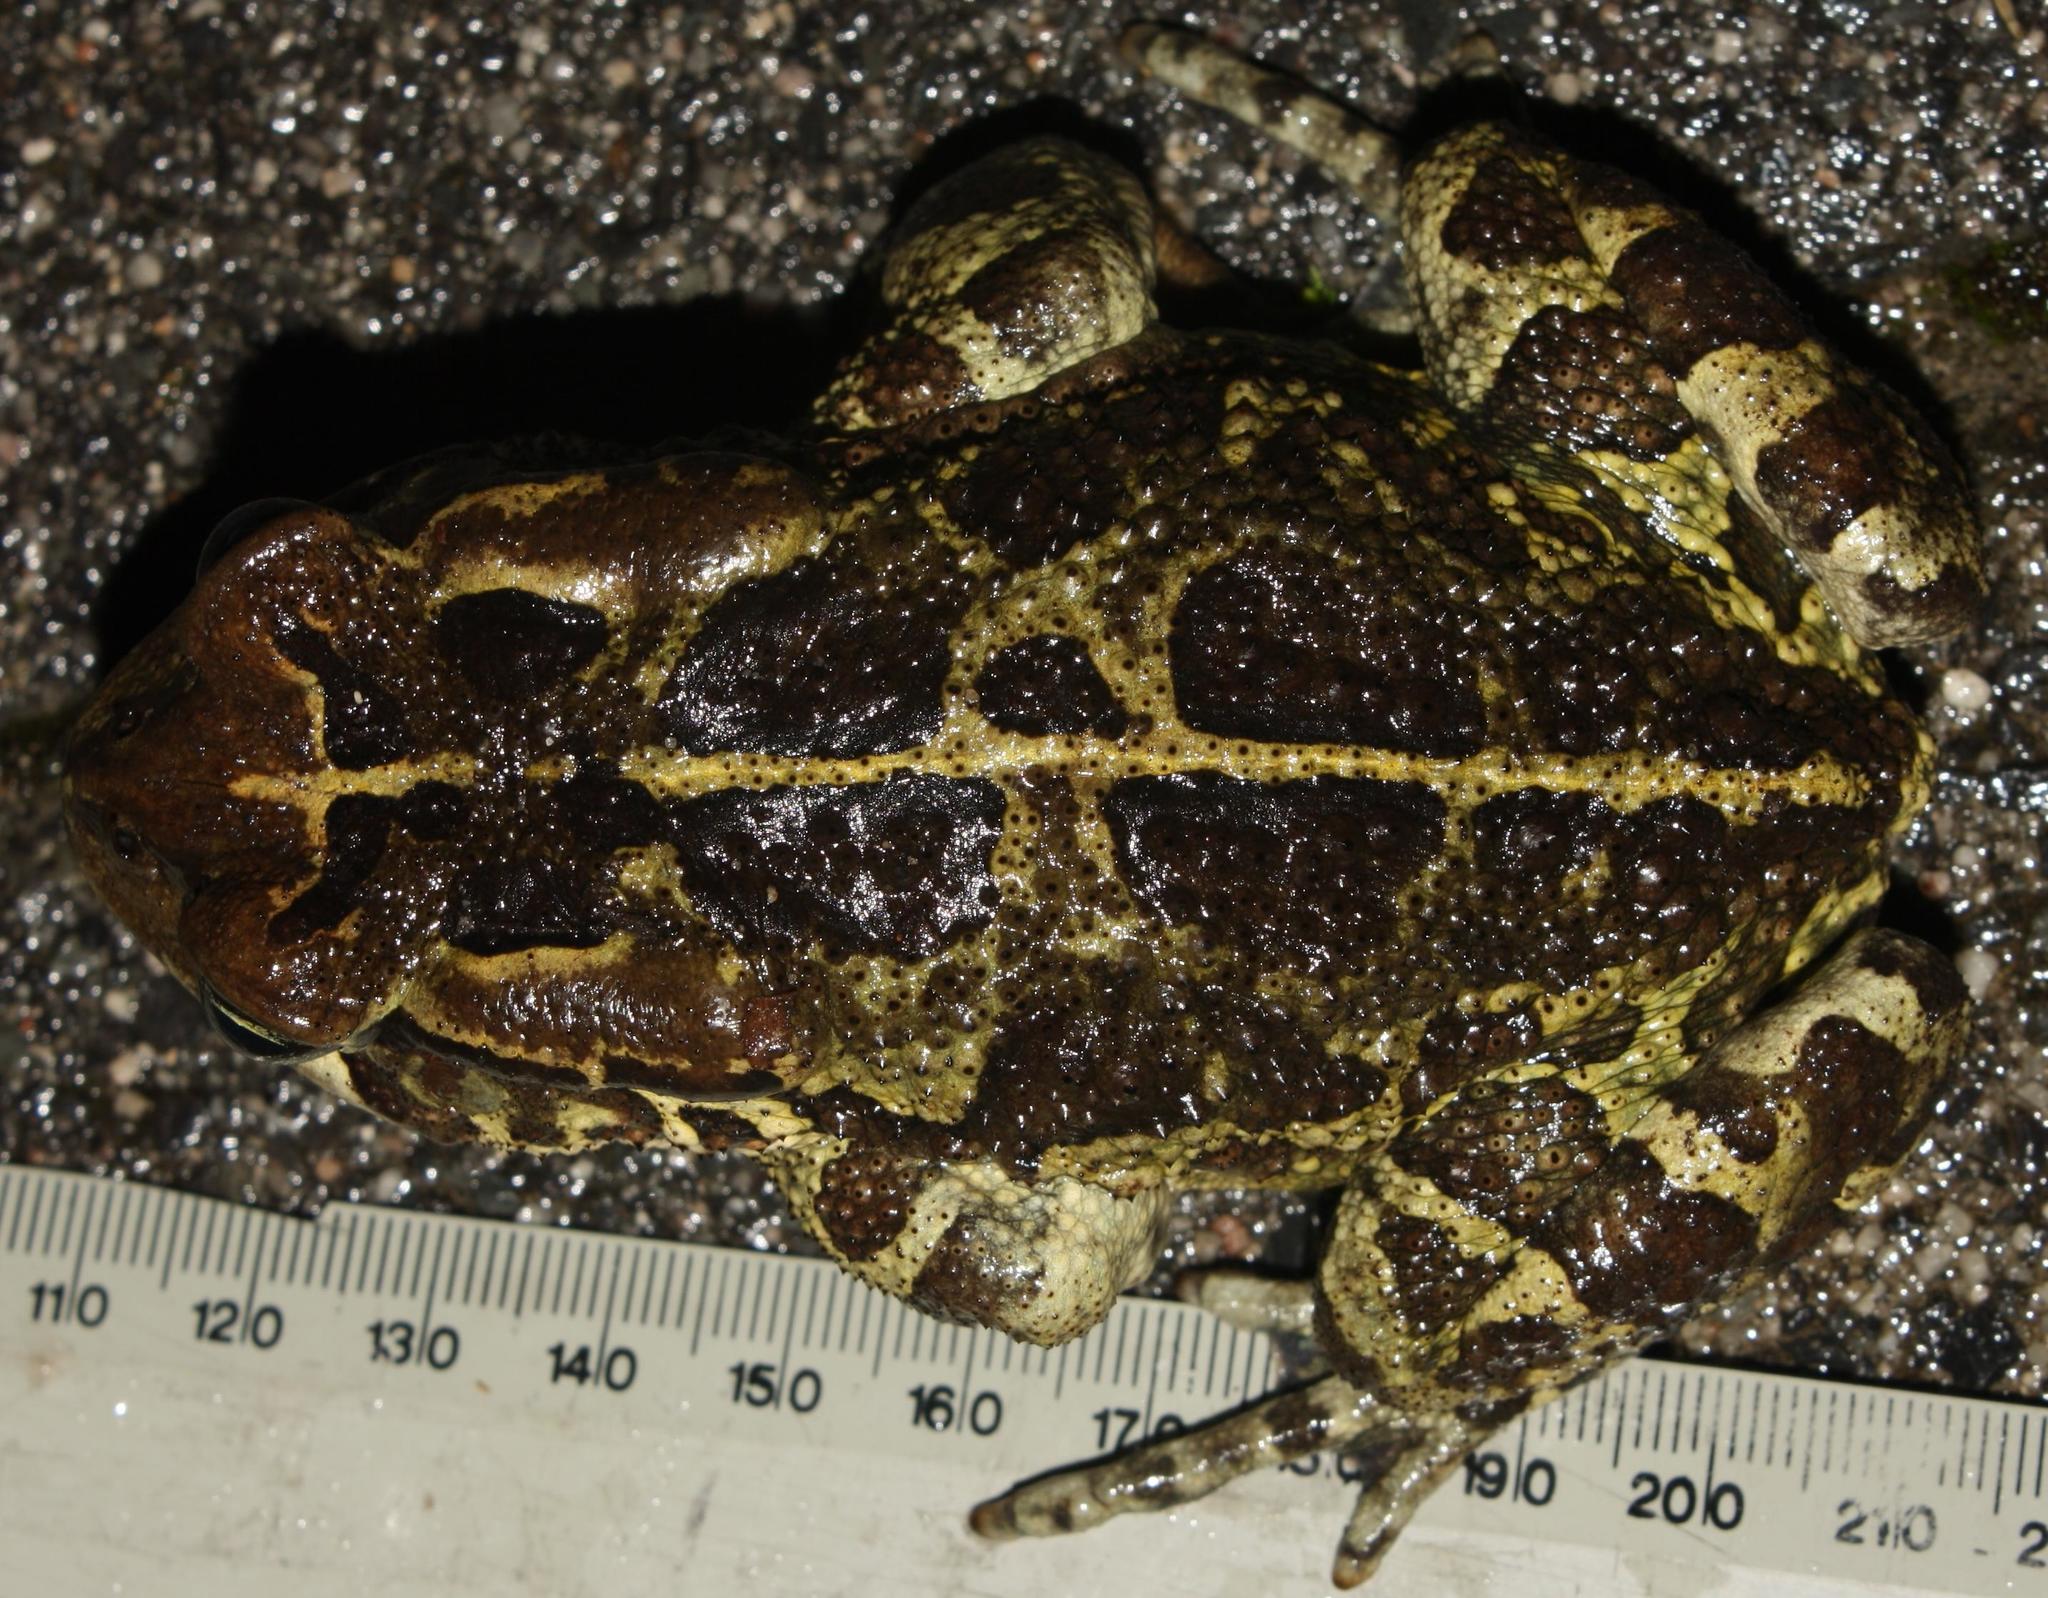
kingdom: Animalia
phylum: Chordata
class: Amphibia
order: Anura
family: Bufonidae
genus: Sclerophrys
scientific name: Sclerophrys pantherina
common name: Panther toad
